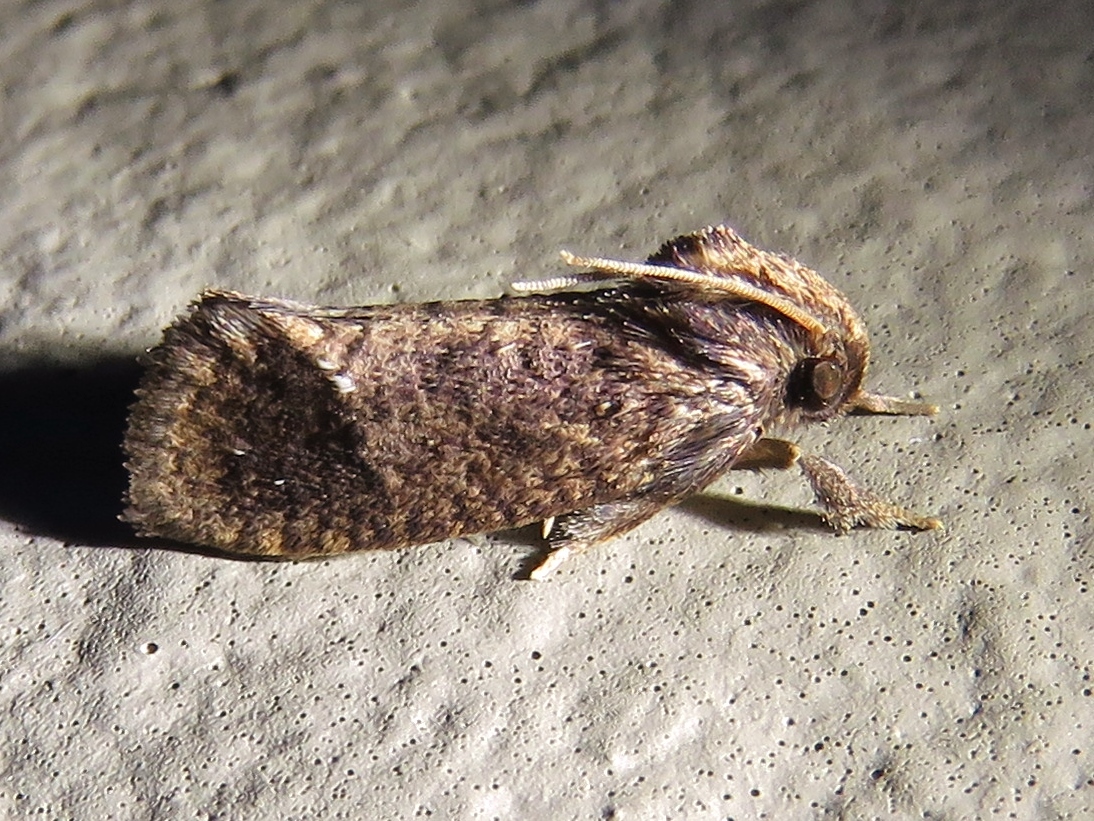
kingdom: Animalia
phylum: Arthropoda
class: Insecta
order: Lepidoptera
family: Tineidae
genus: Acrolophus
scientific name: Acrolophus texanella
